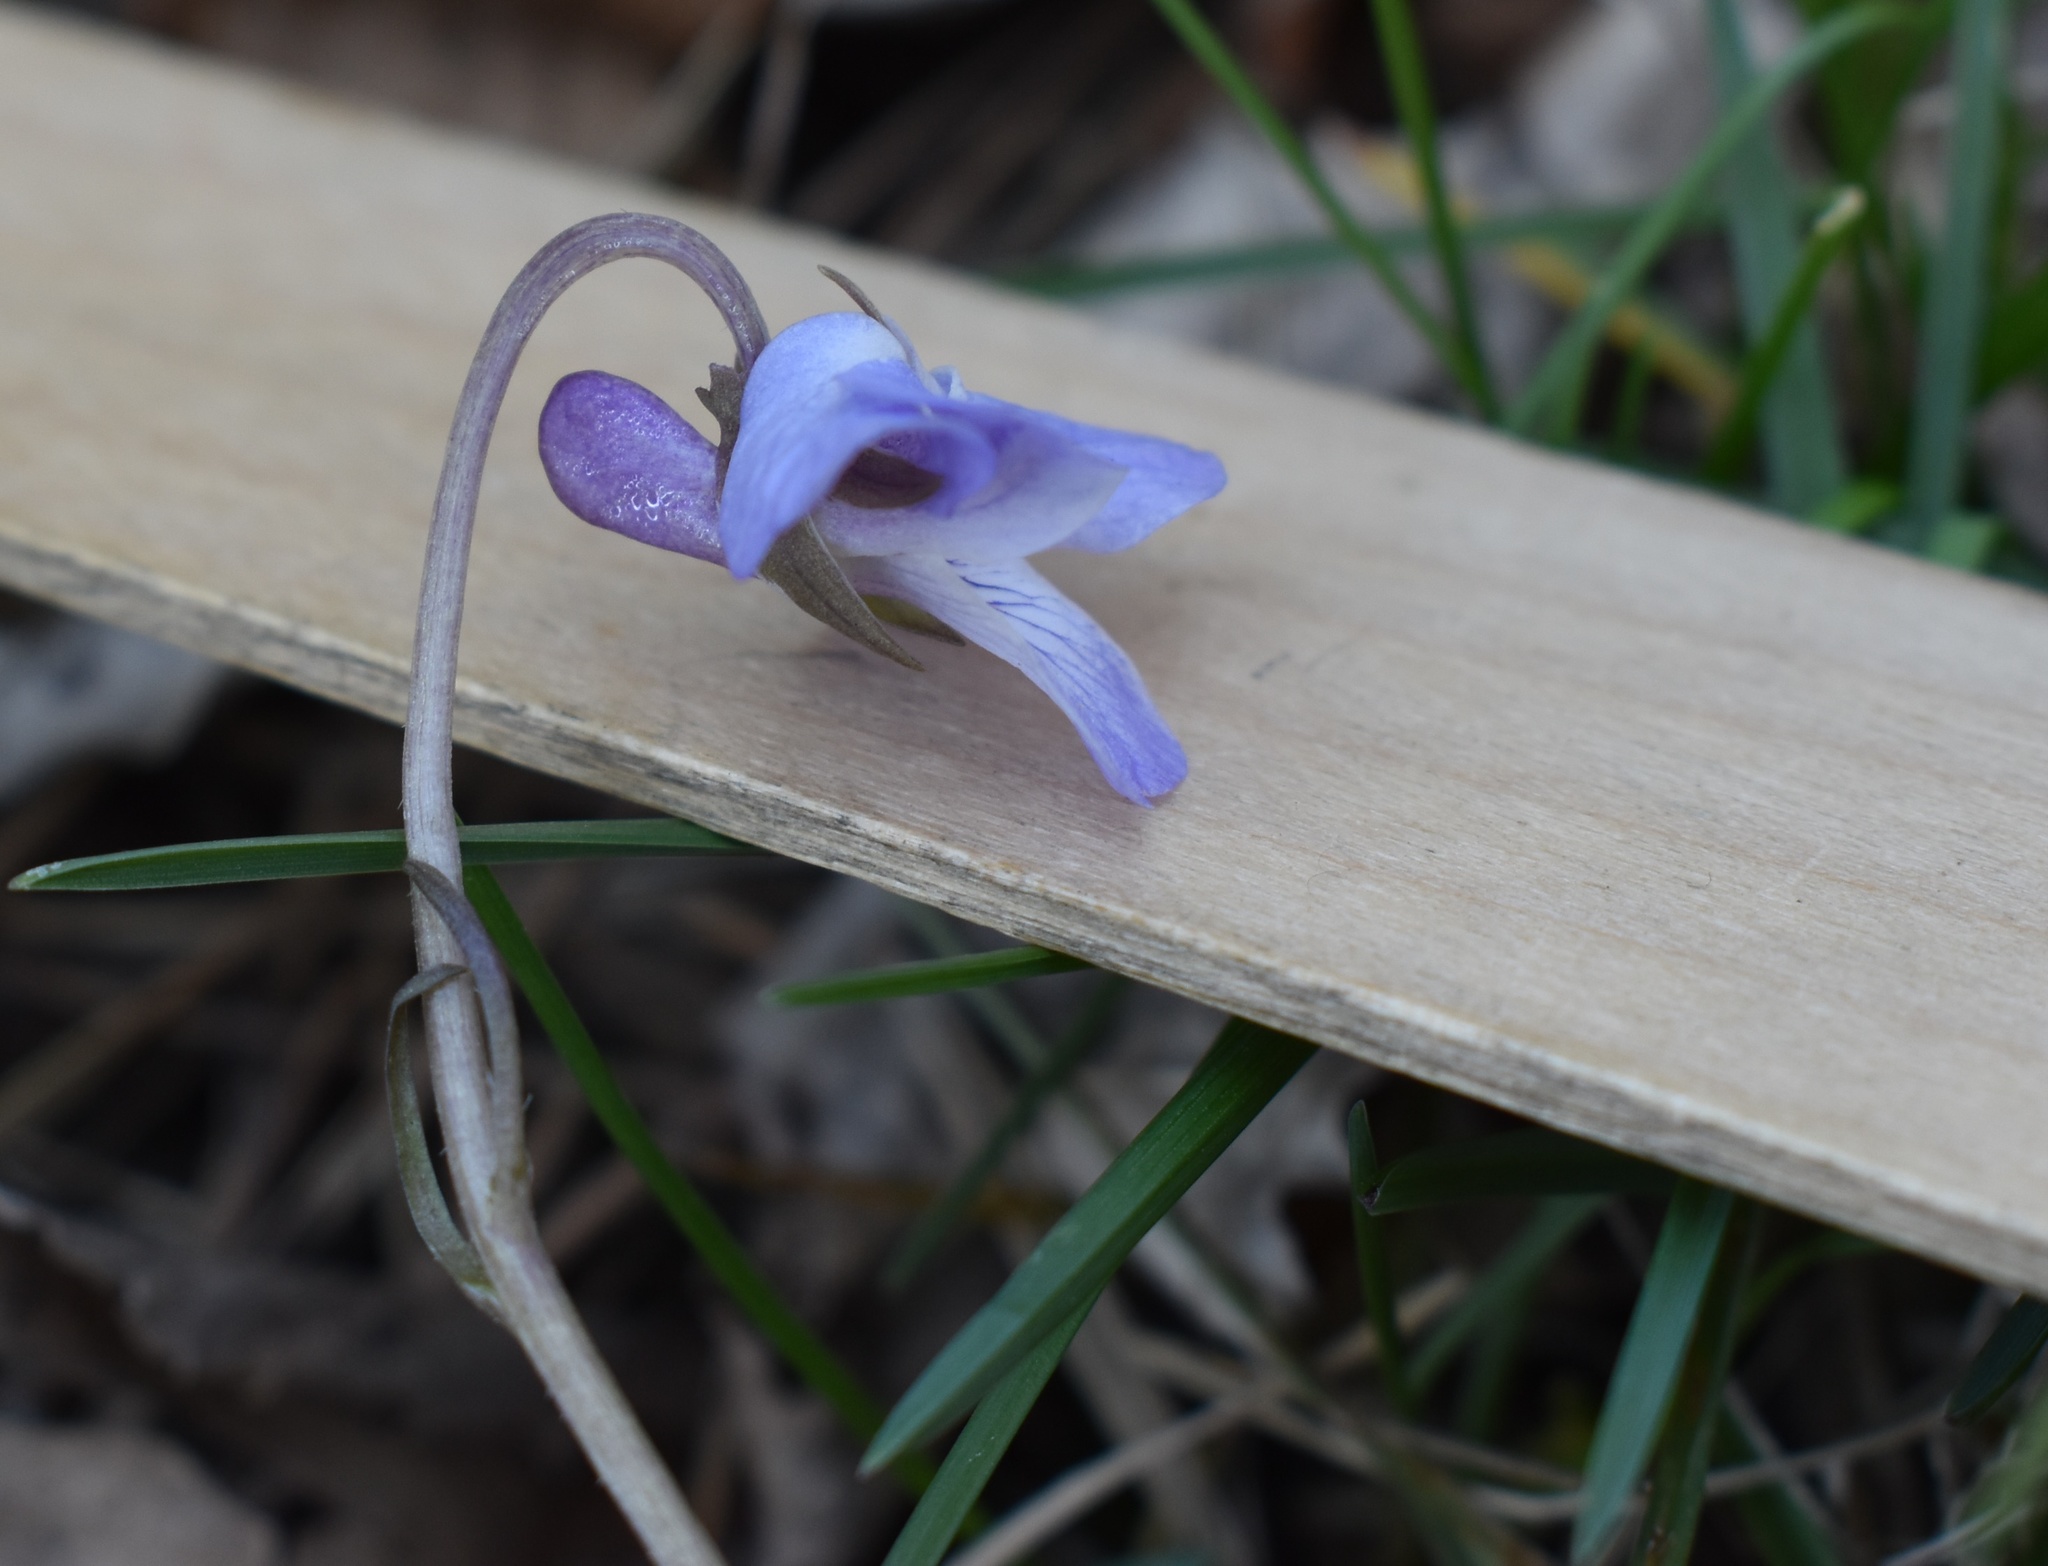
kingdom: Plantae
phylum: Tracheophyta
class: Magnoliopsida
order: Malpighiales
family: Violaceae
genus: Viola
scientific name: Viola selkirkii
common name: Selkirk's violet
